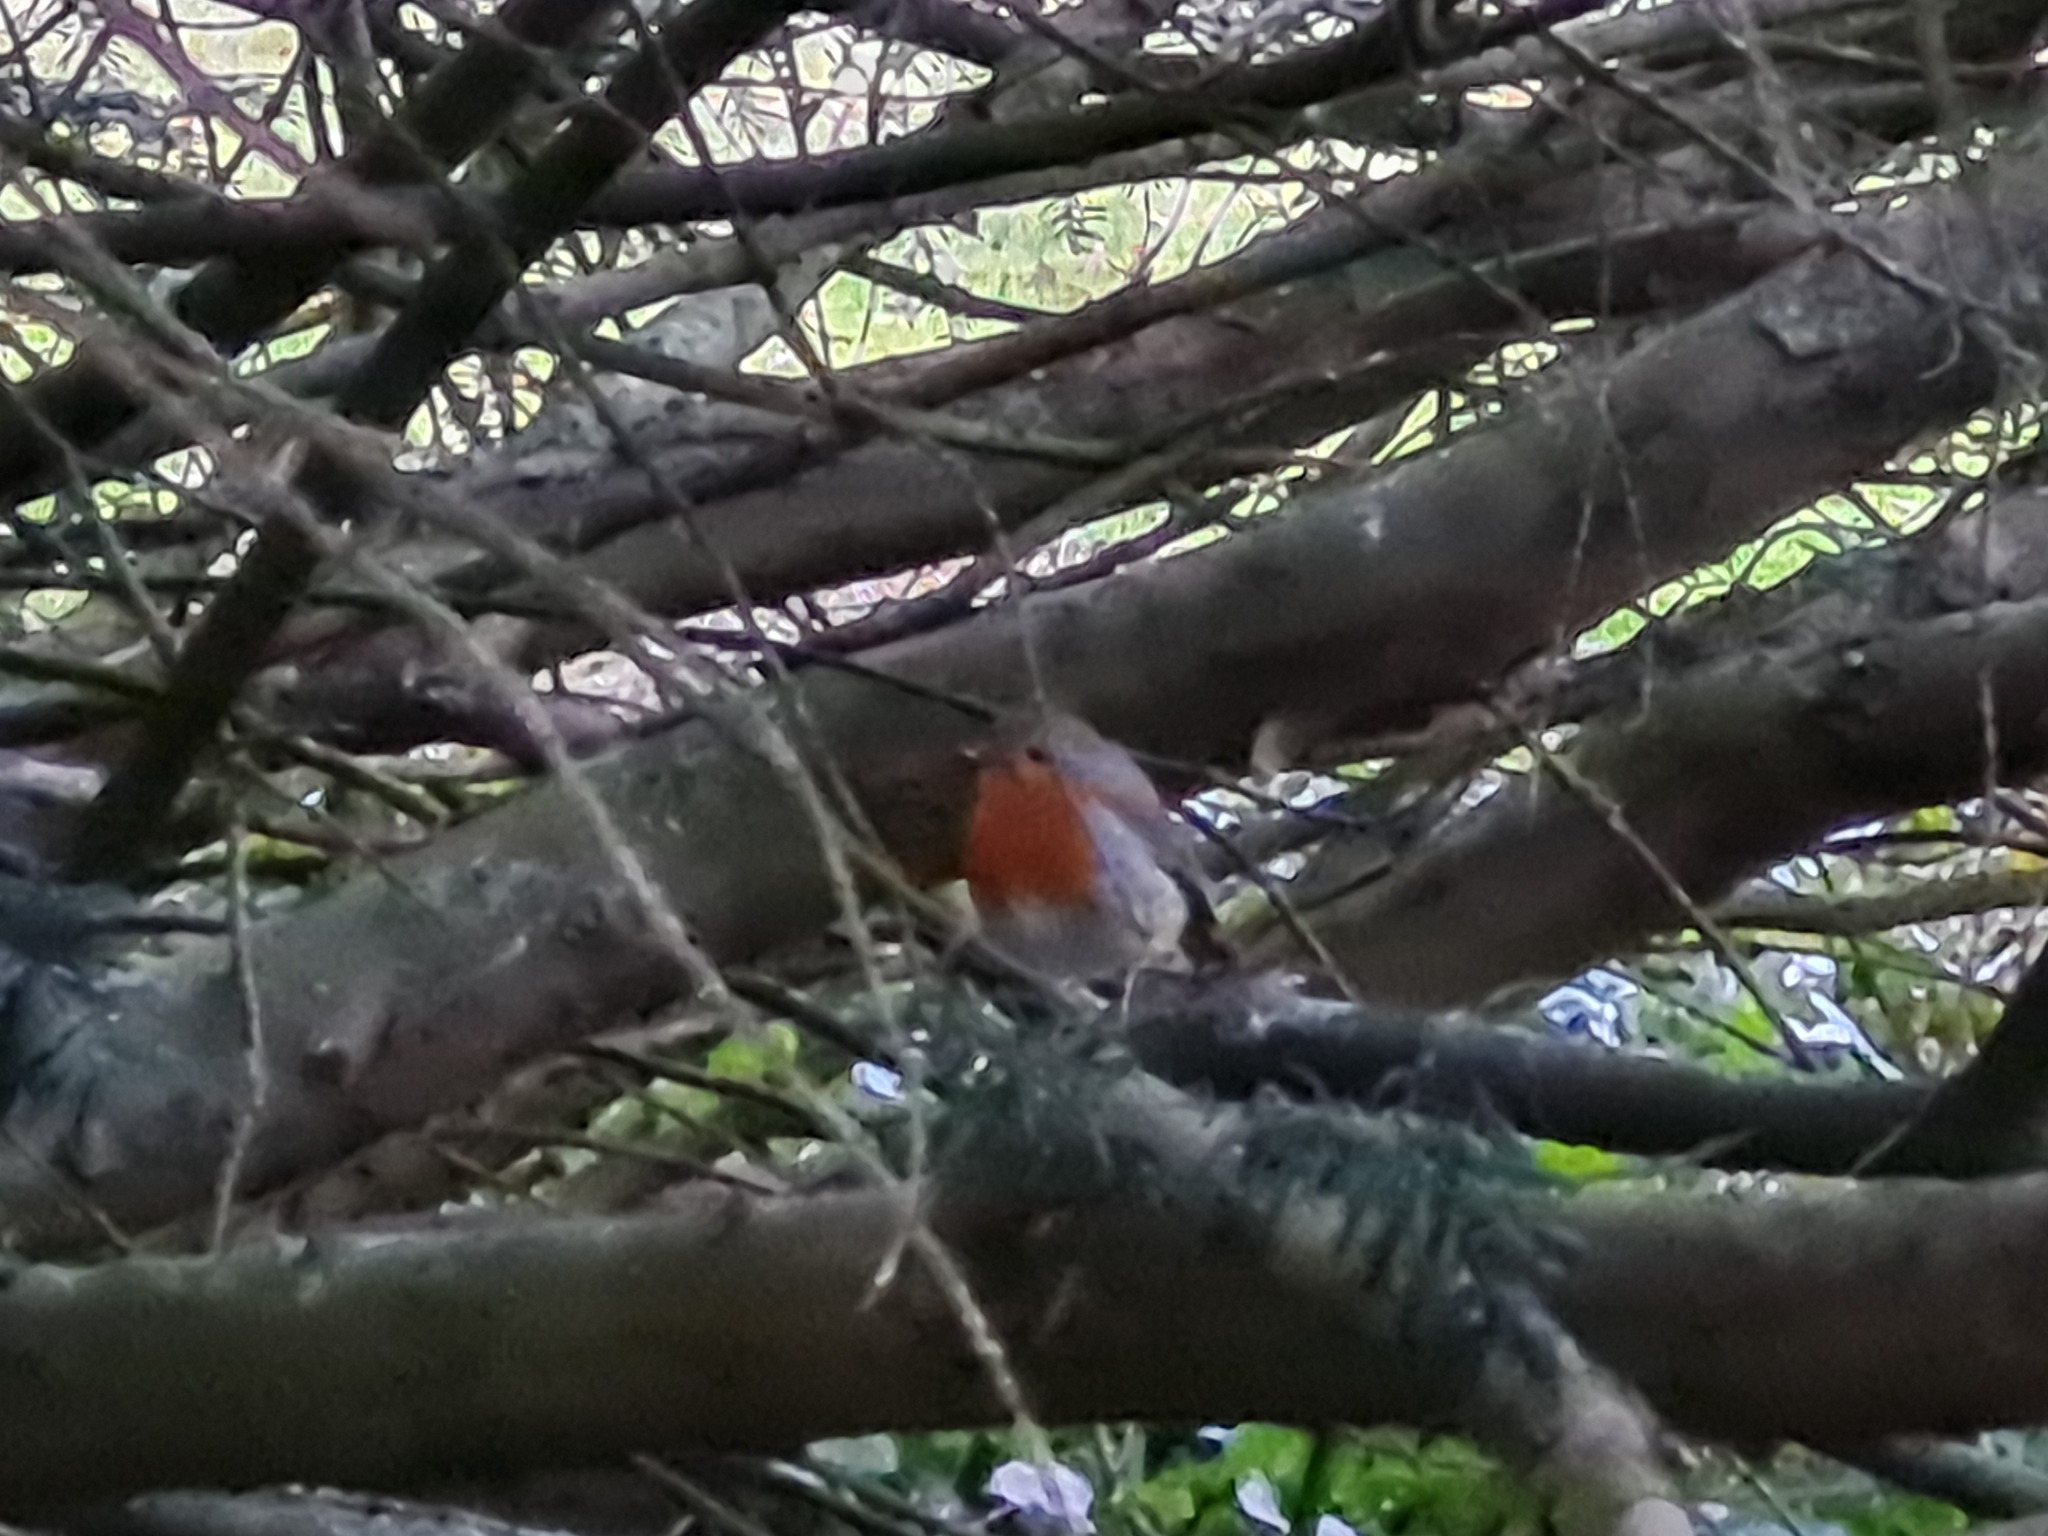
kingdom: Animalia
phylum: Chordata
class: Aves
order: Passeriformes
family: Muscicapidae
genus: Erithacus
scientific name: Erithacus rubecula
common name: European robin
